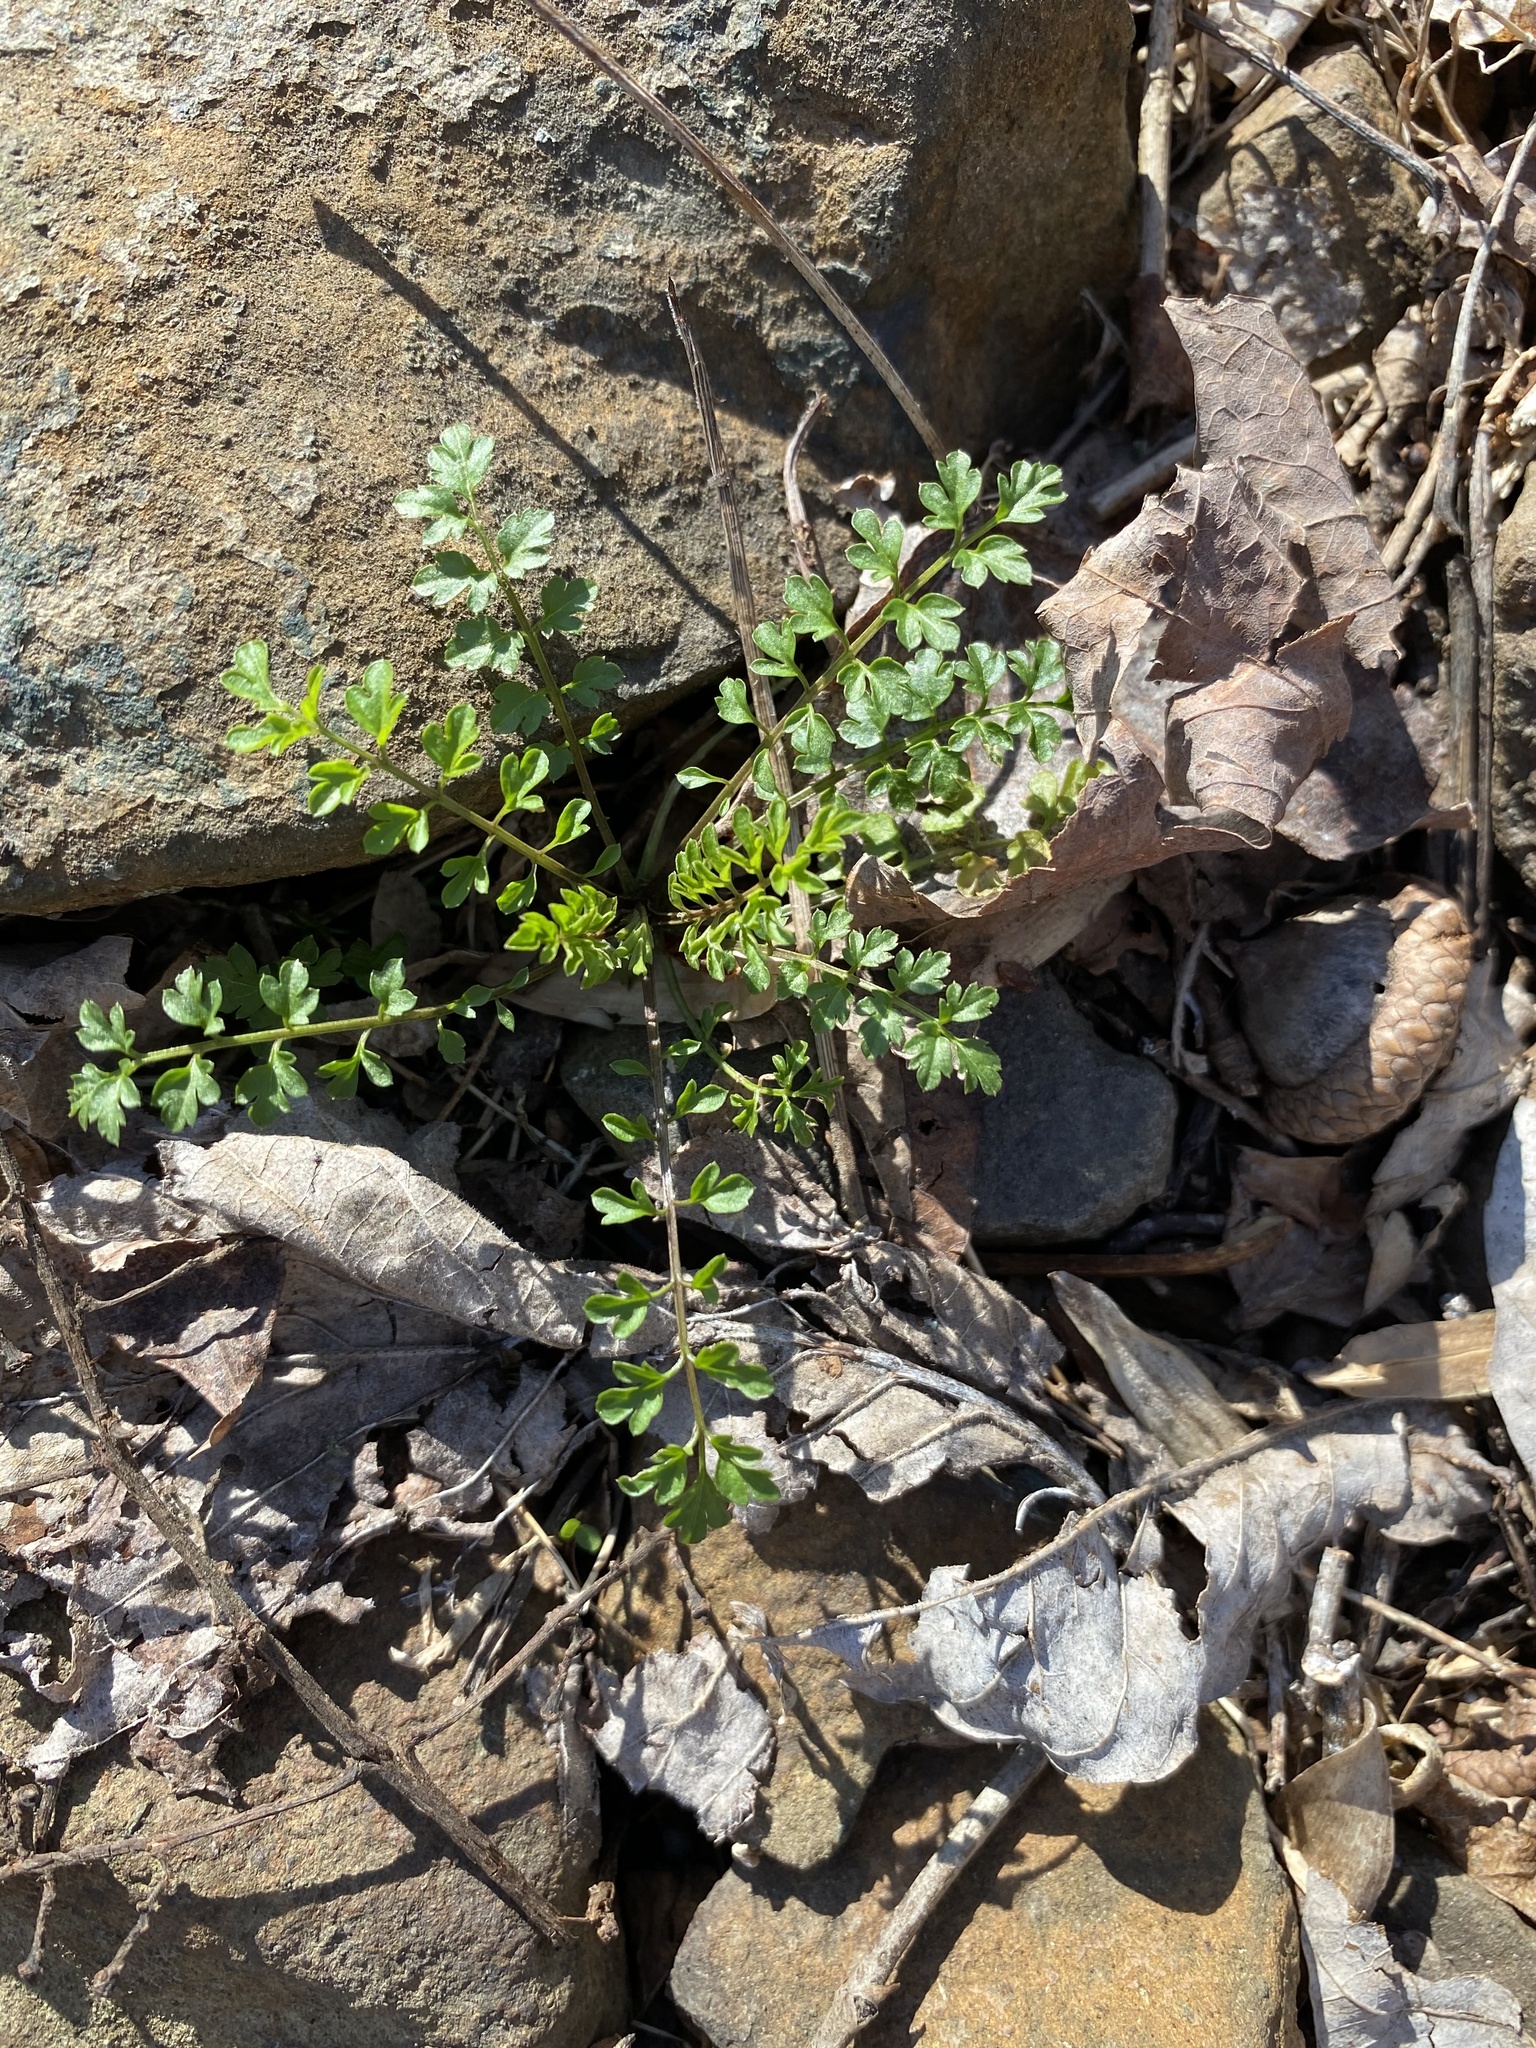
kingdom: Plantae
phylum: Tracheophyta
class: Magnoliopsida
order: Brassicales
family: Brassicaceae
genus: Cardamine
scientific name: Cardamine impatiens
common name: Narrow-leaved bitter-cress
